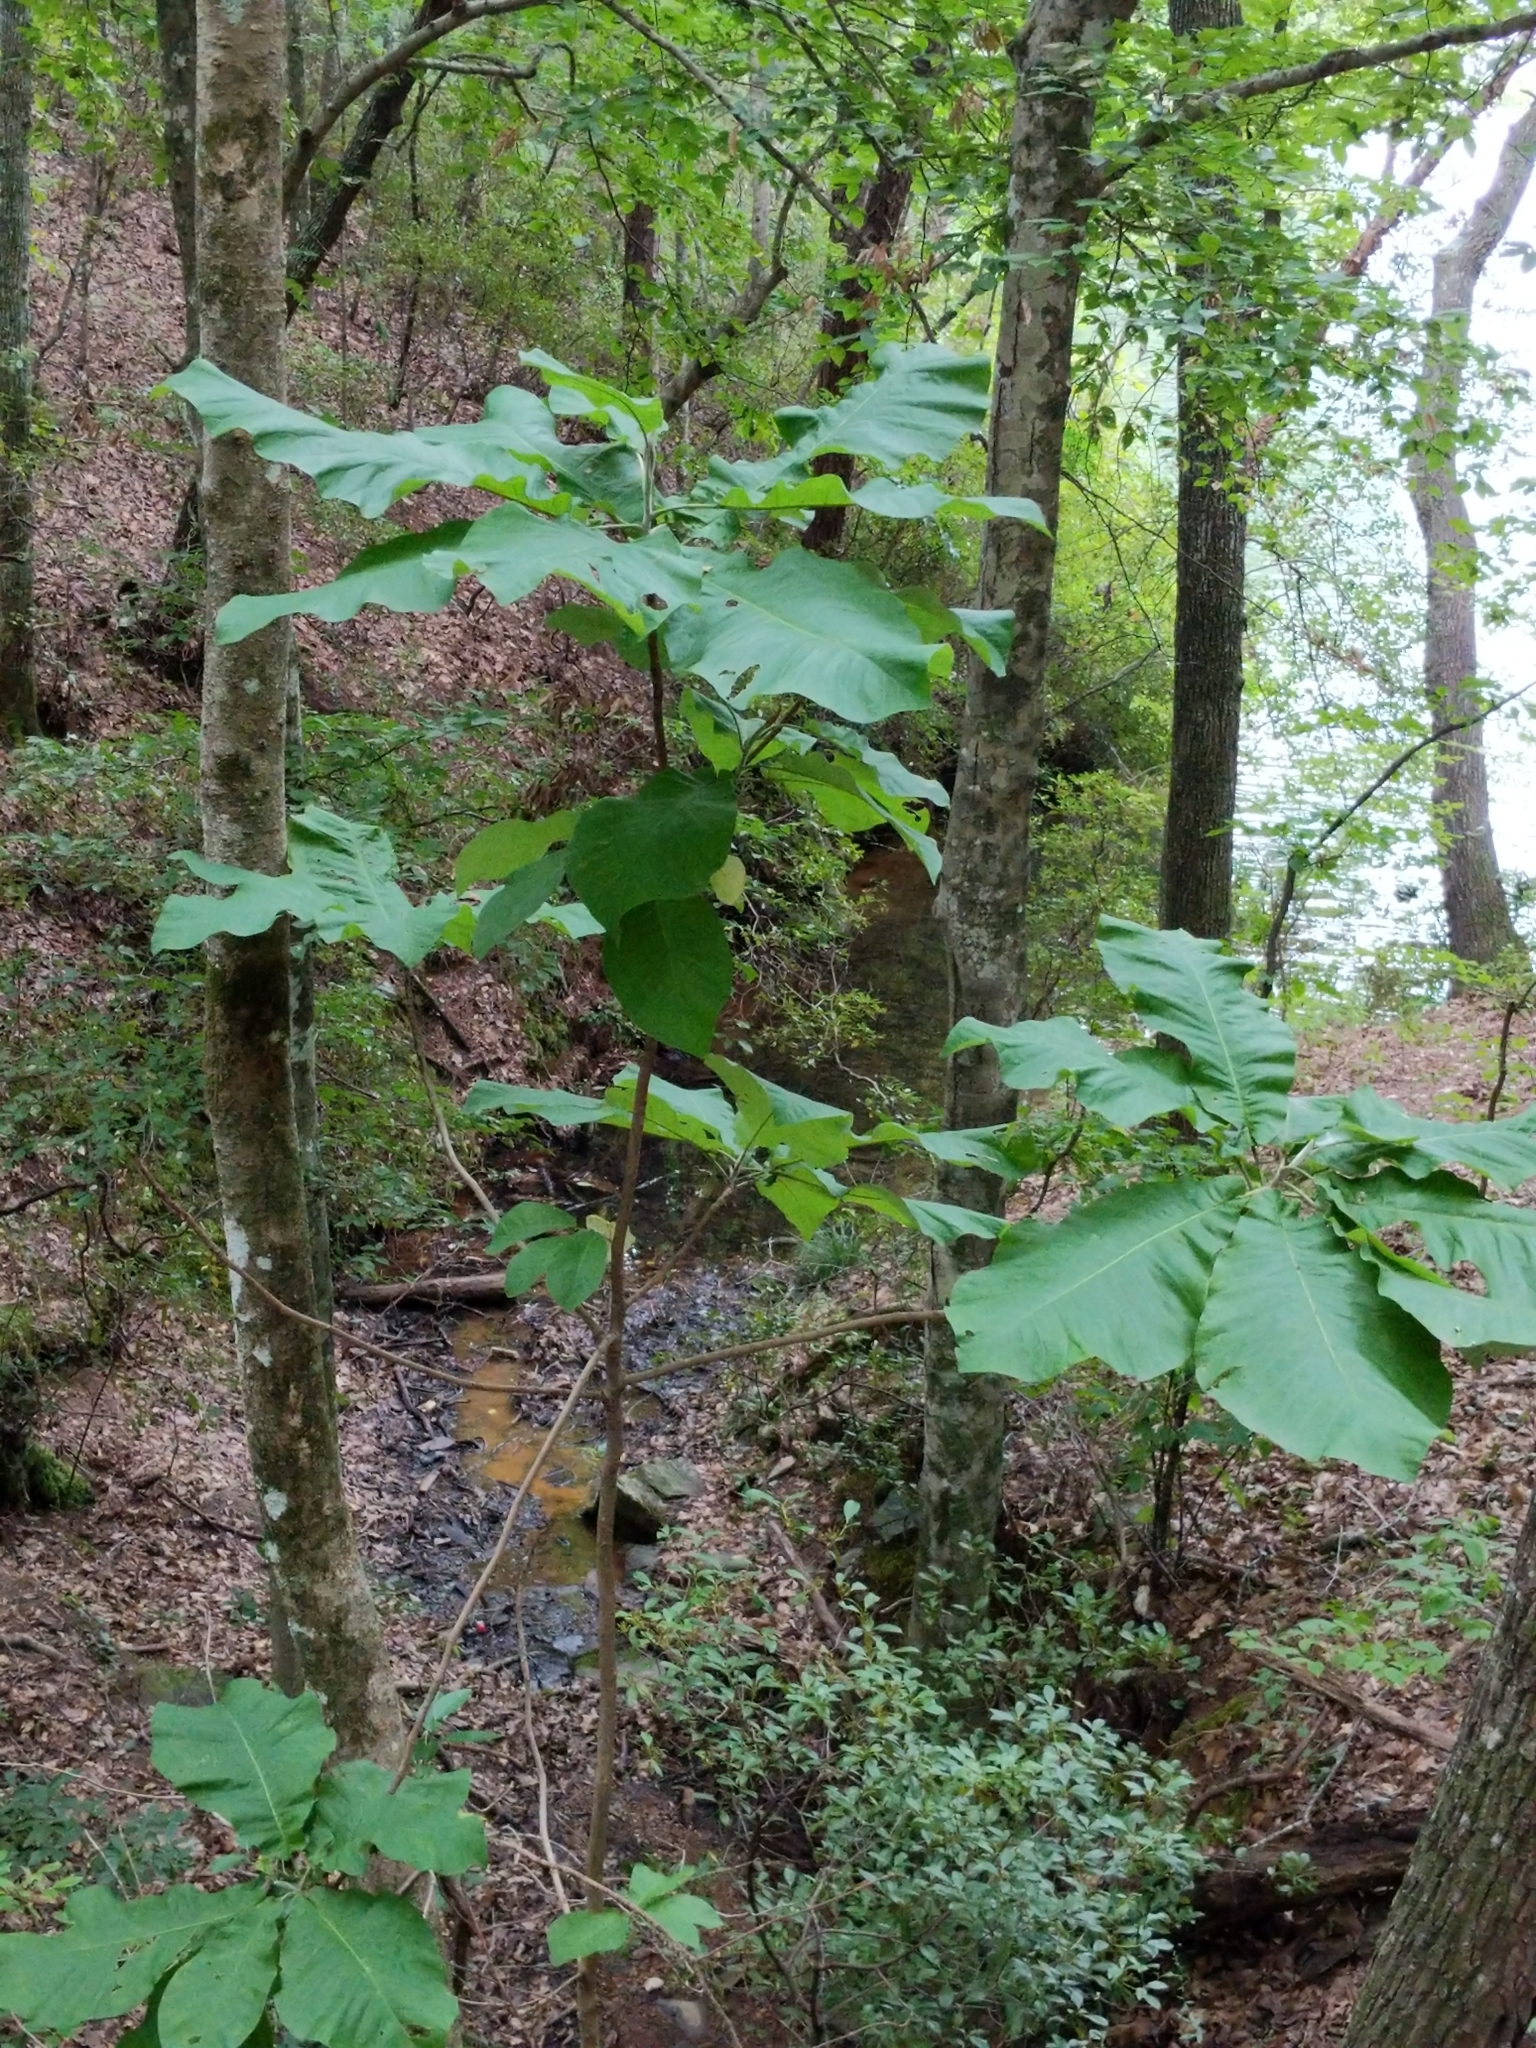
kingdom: Plantae
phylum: Tracheophyta
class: Magnoliopsida
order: Magnoliales
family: Magnoliaceae
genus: Magnolia
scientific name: Magnolia macrophylla
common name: Big-leaf magnolia
